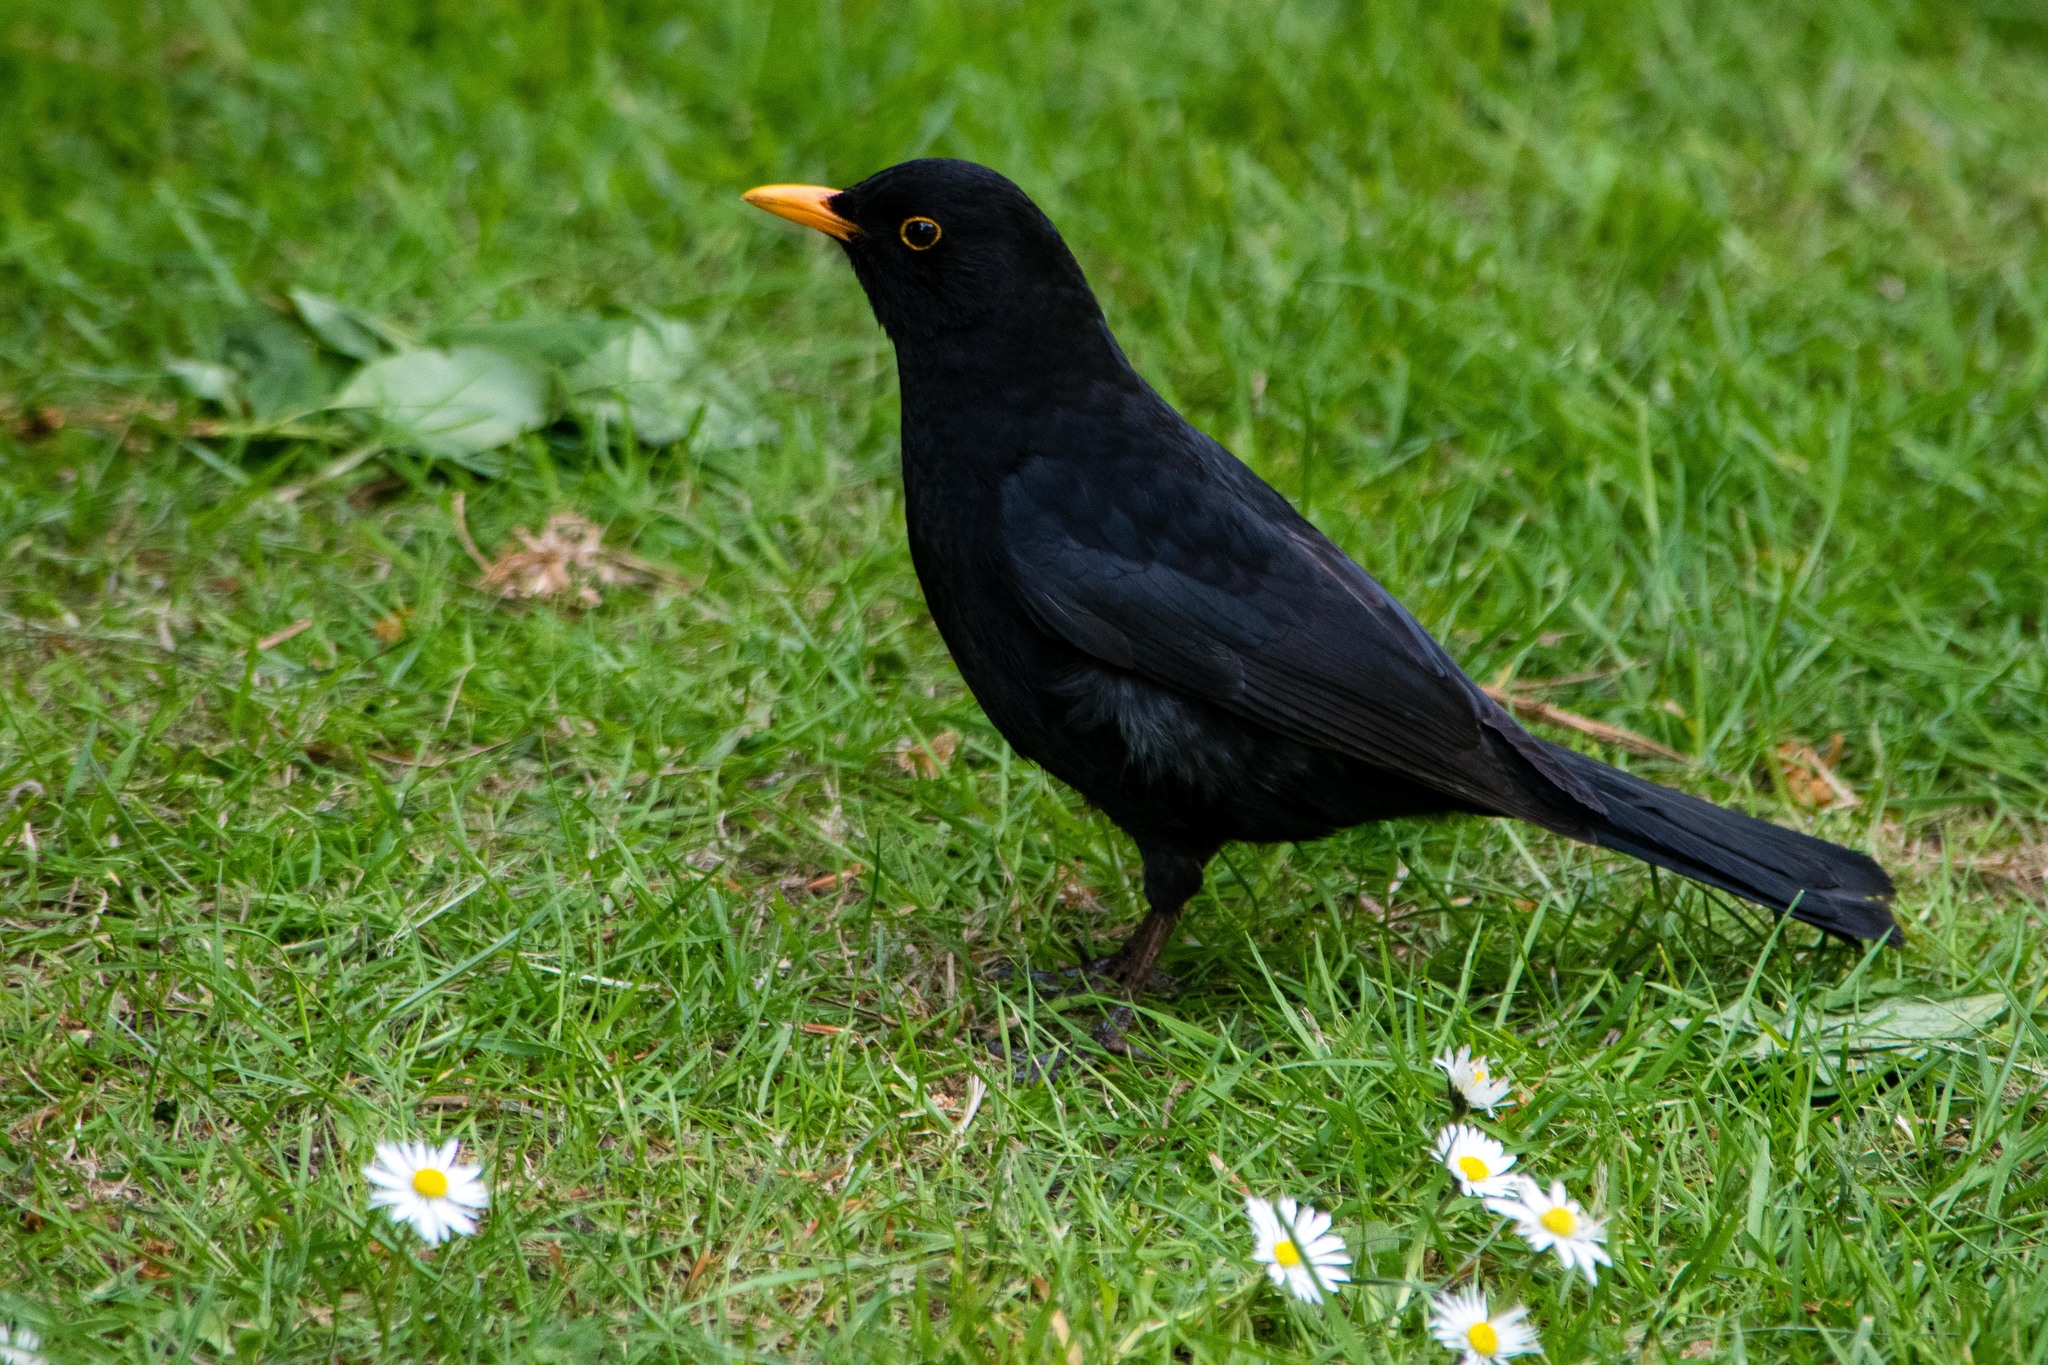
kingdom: Animalia
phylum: Chordata
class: Aves
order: Passeriformes
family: Turdidae
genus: Turdus
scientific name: Turdus merula
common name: Common blackbird
